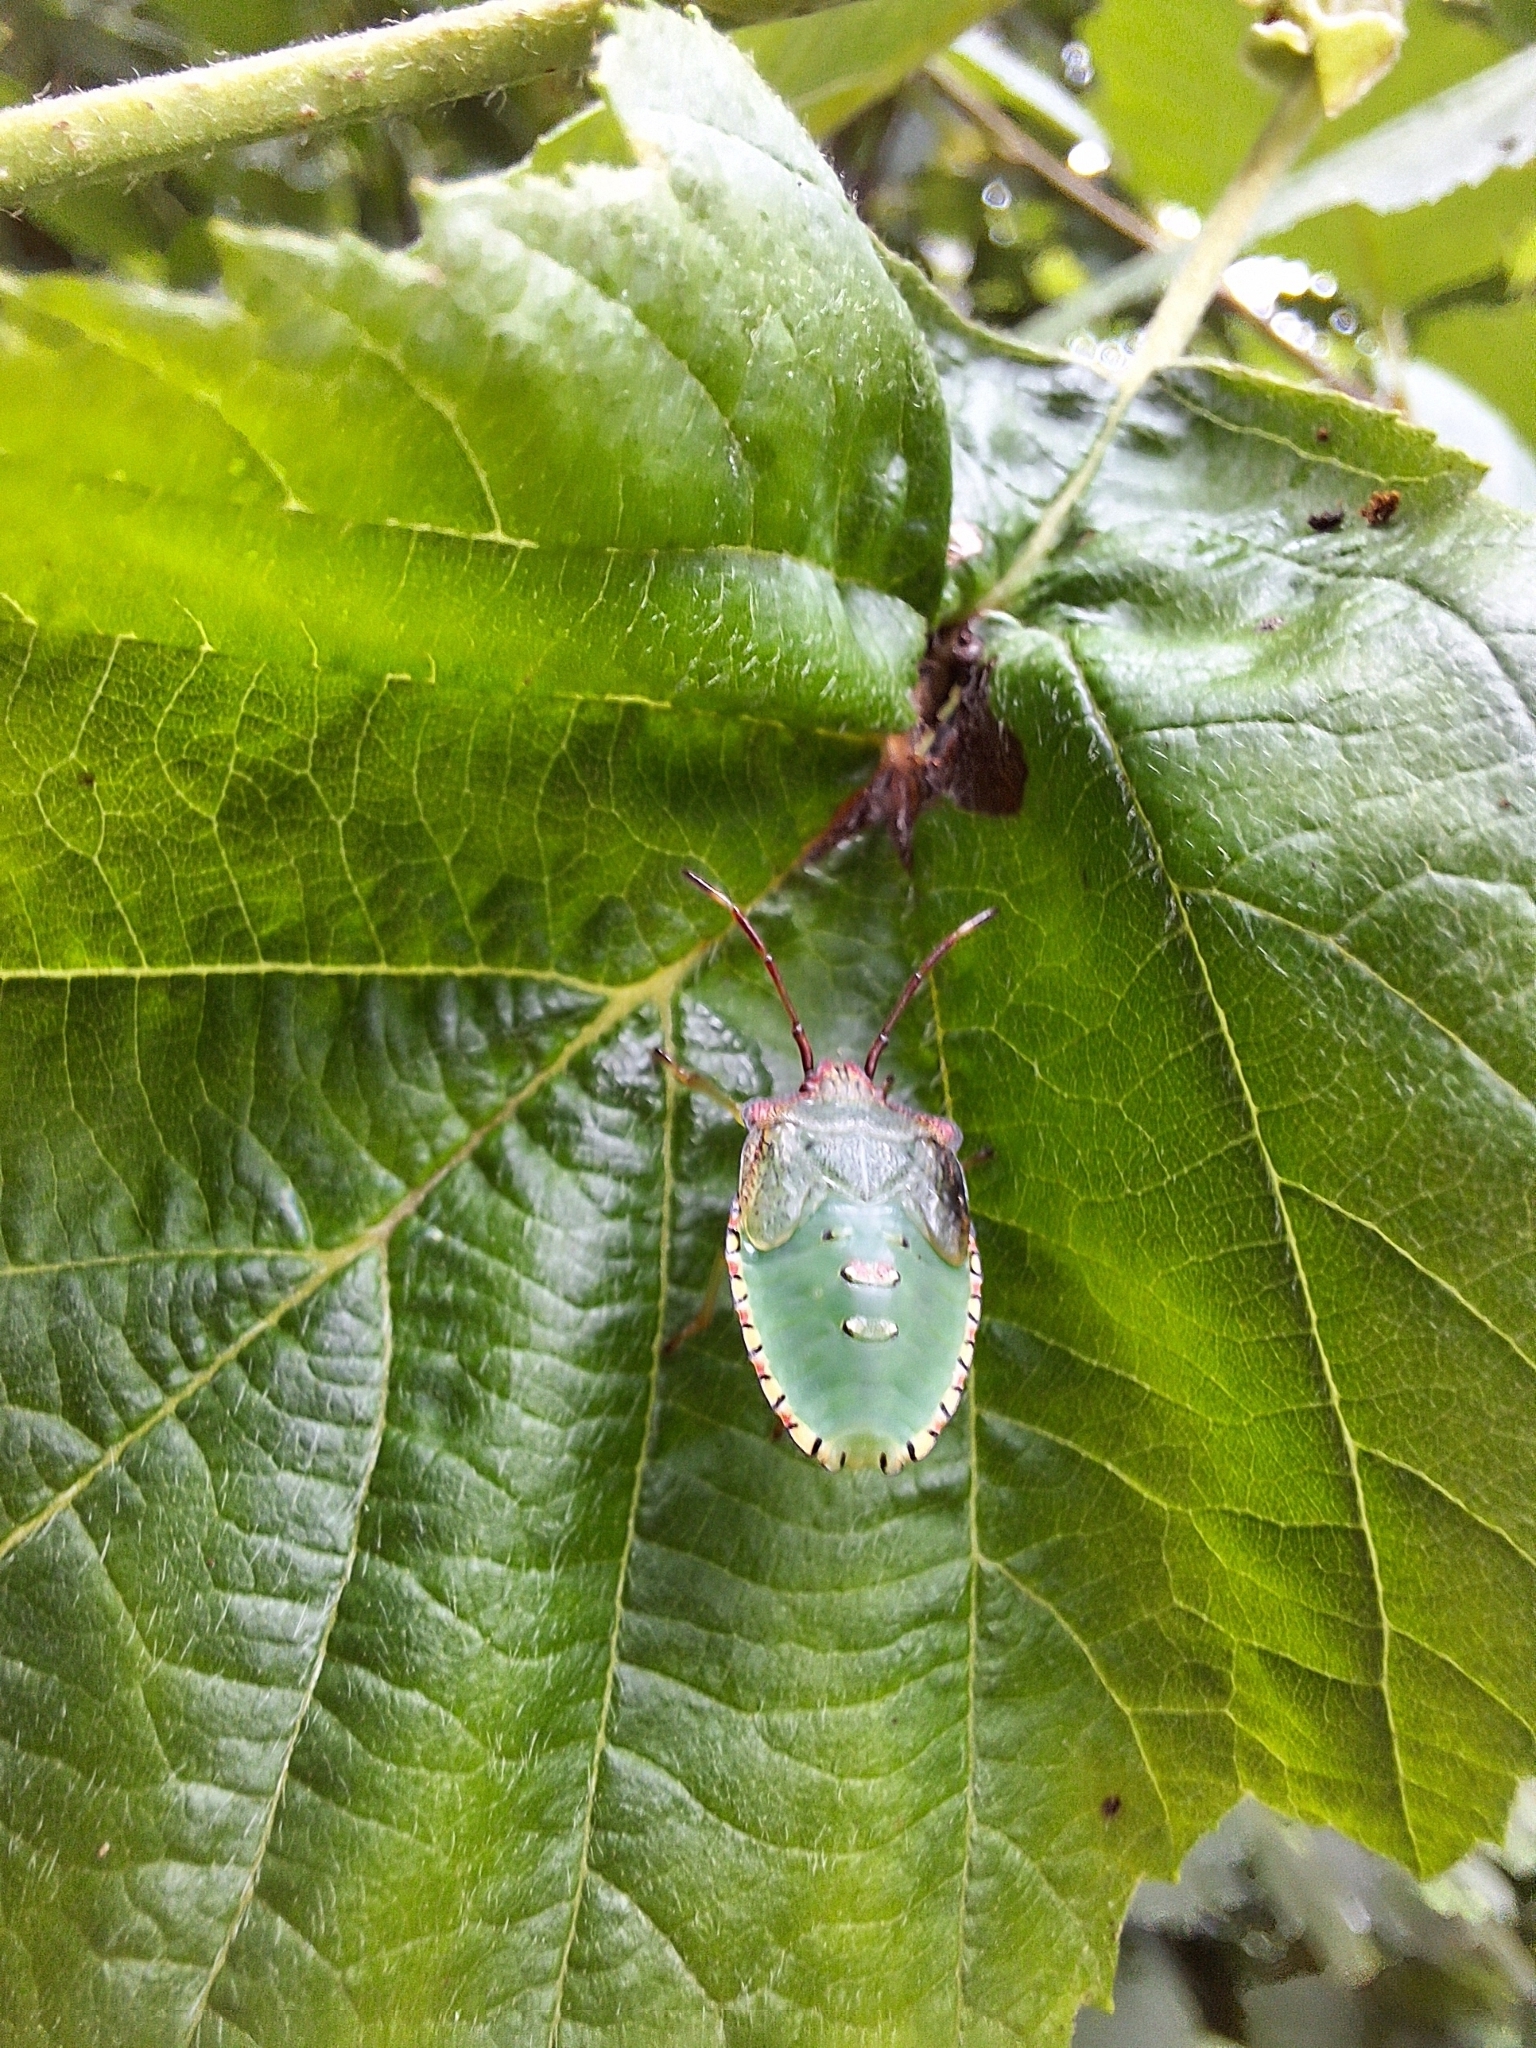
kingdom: Animalia
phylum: Arthropoda
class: Insecta
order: Hemiptera
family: Acanthosomatidae
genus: Acanthosoma
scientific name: Acanthosoma haemorrhoidale
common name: Hawthorn shieldbug
